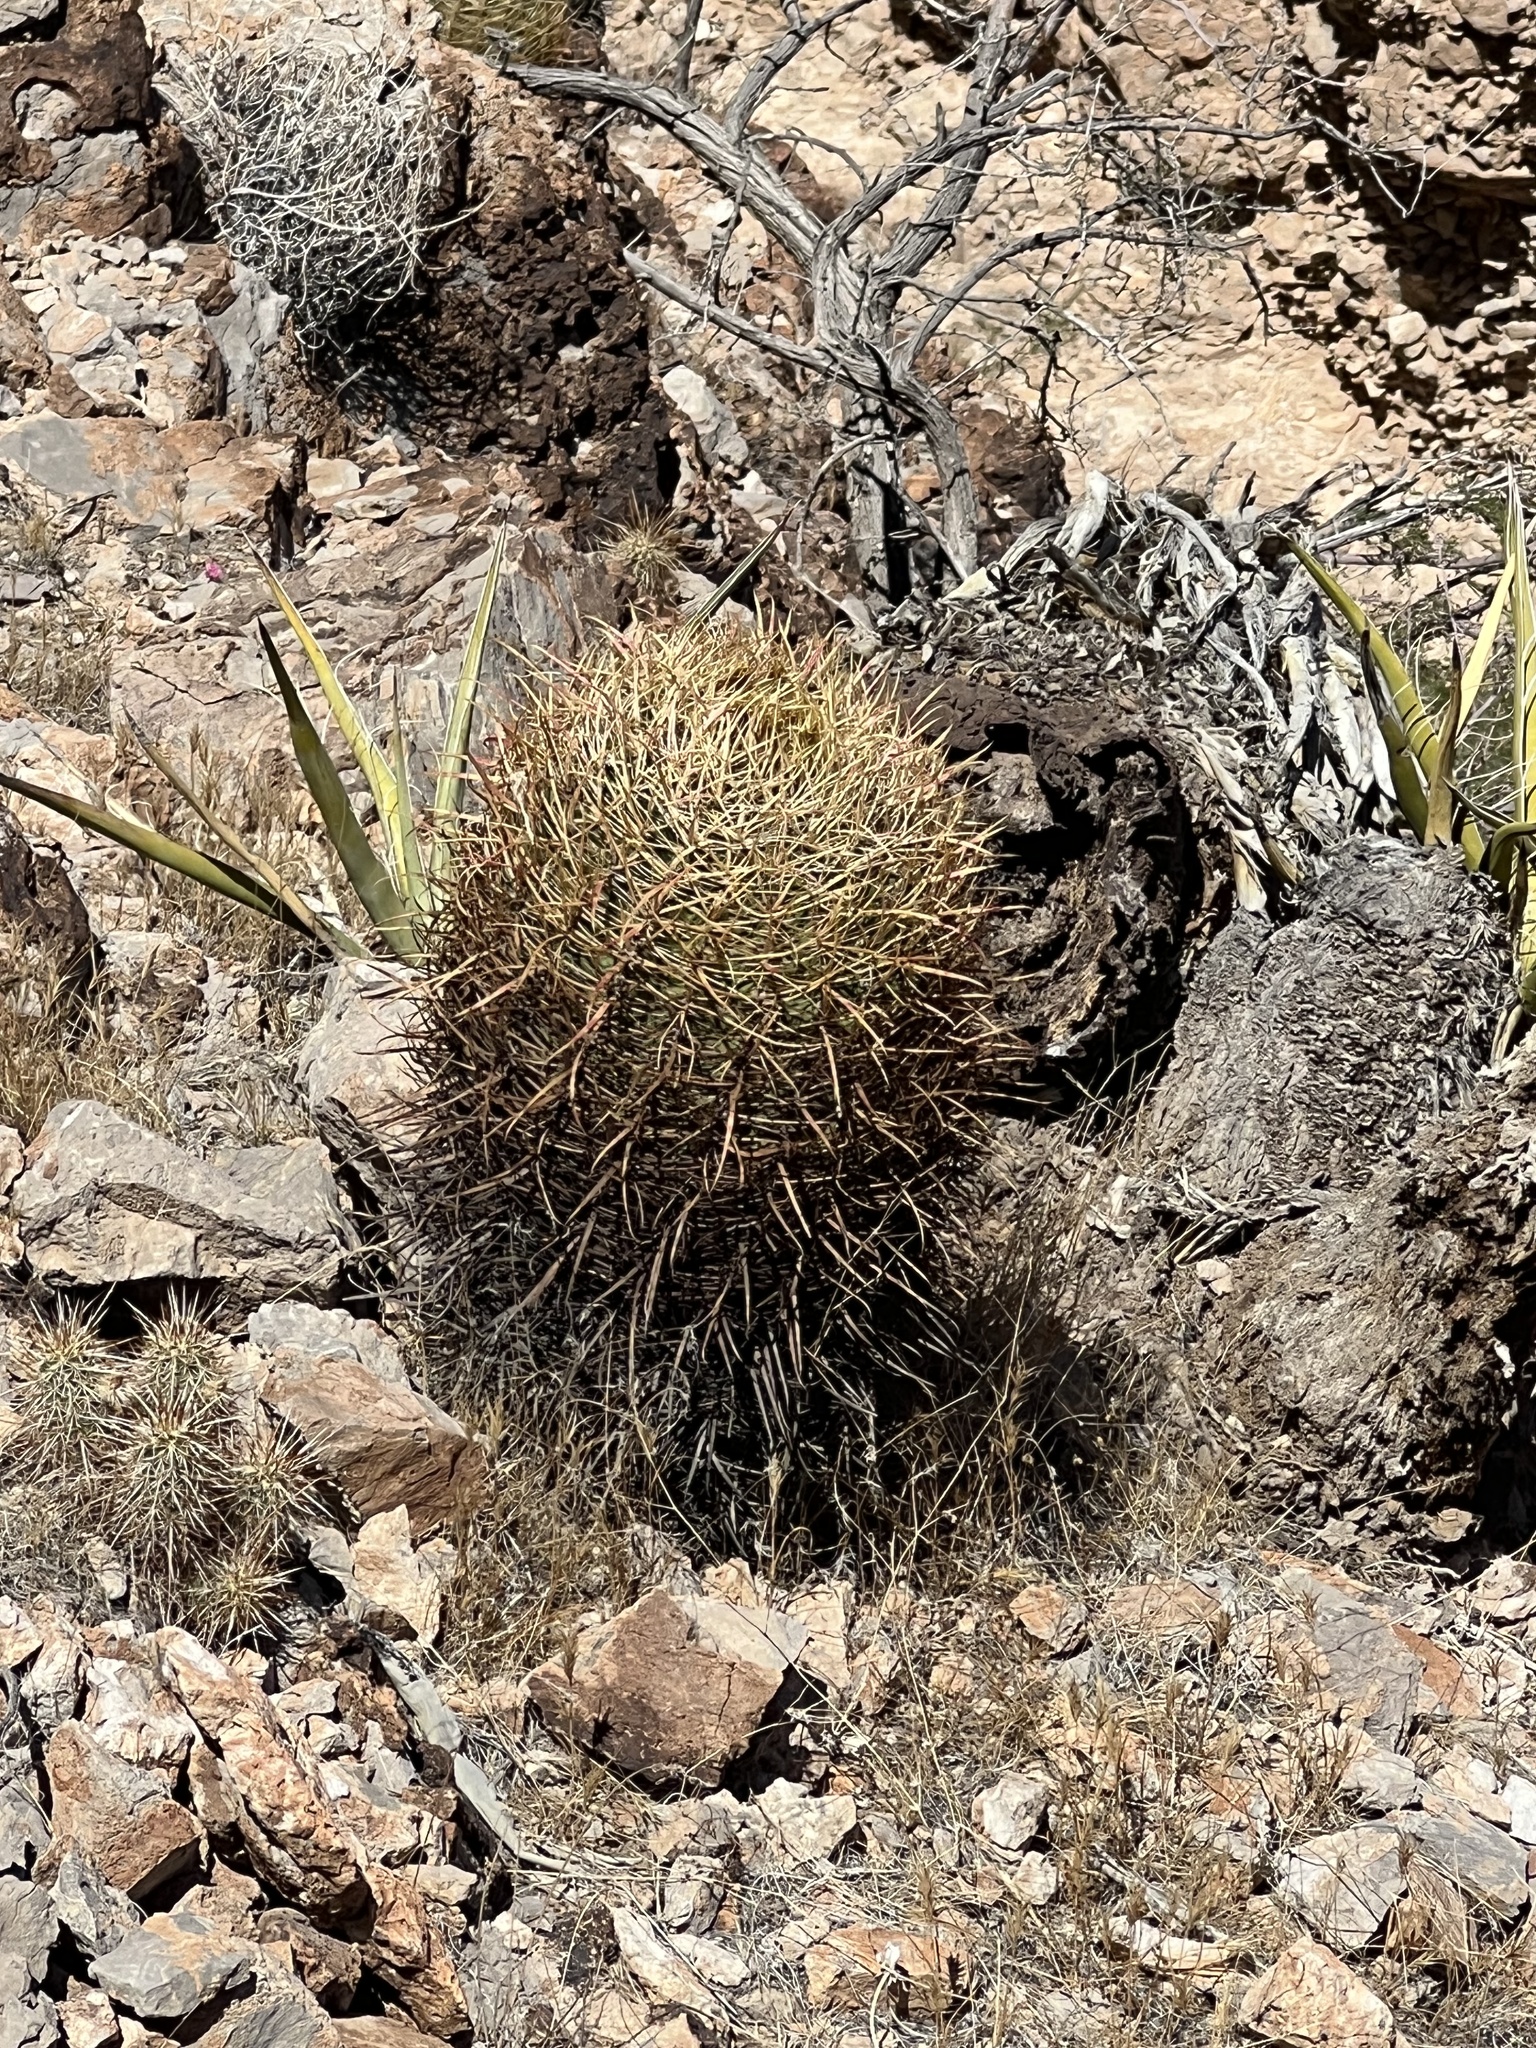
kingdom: Plantae
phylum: Tracheophyta
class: Magnoliopsida
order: Caryophyllales
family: Cactaceae
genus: Ferocactus
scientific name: Ferocactus cylindraceus
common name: California barrel cactus
